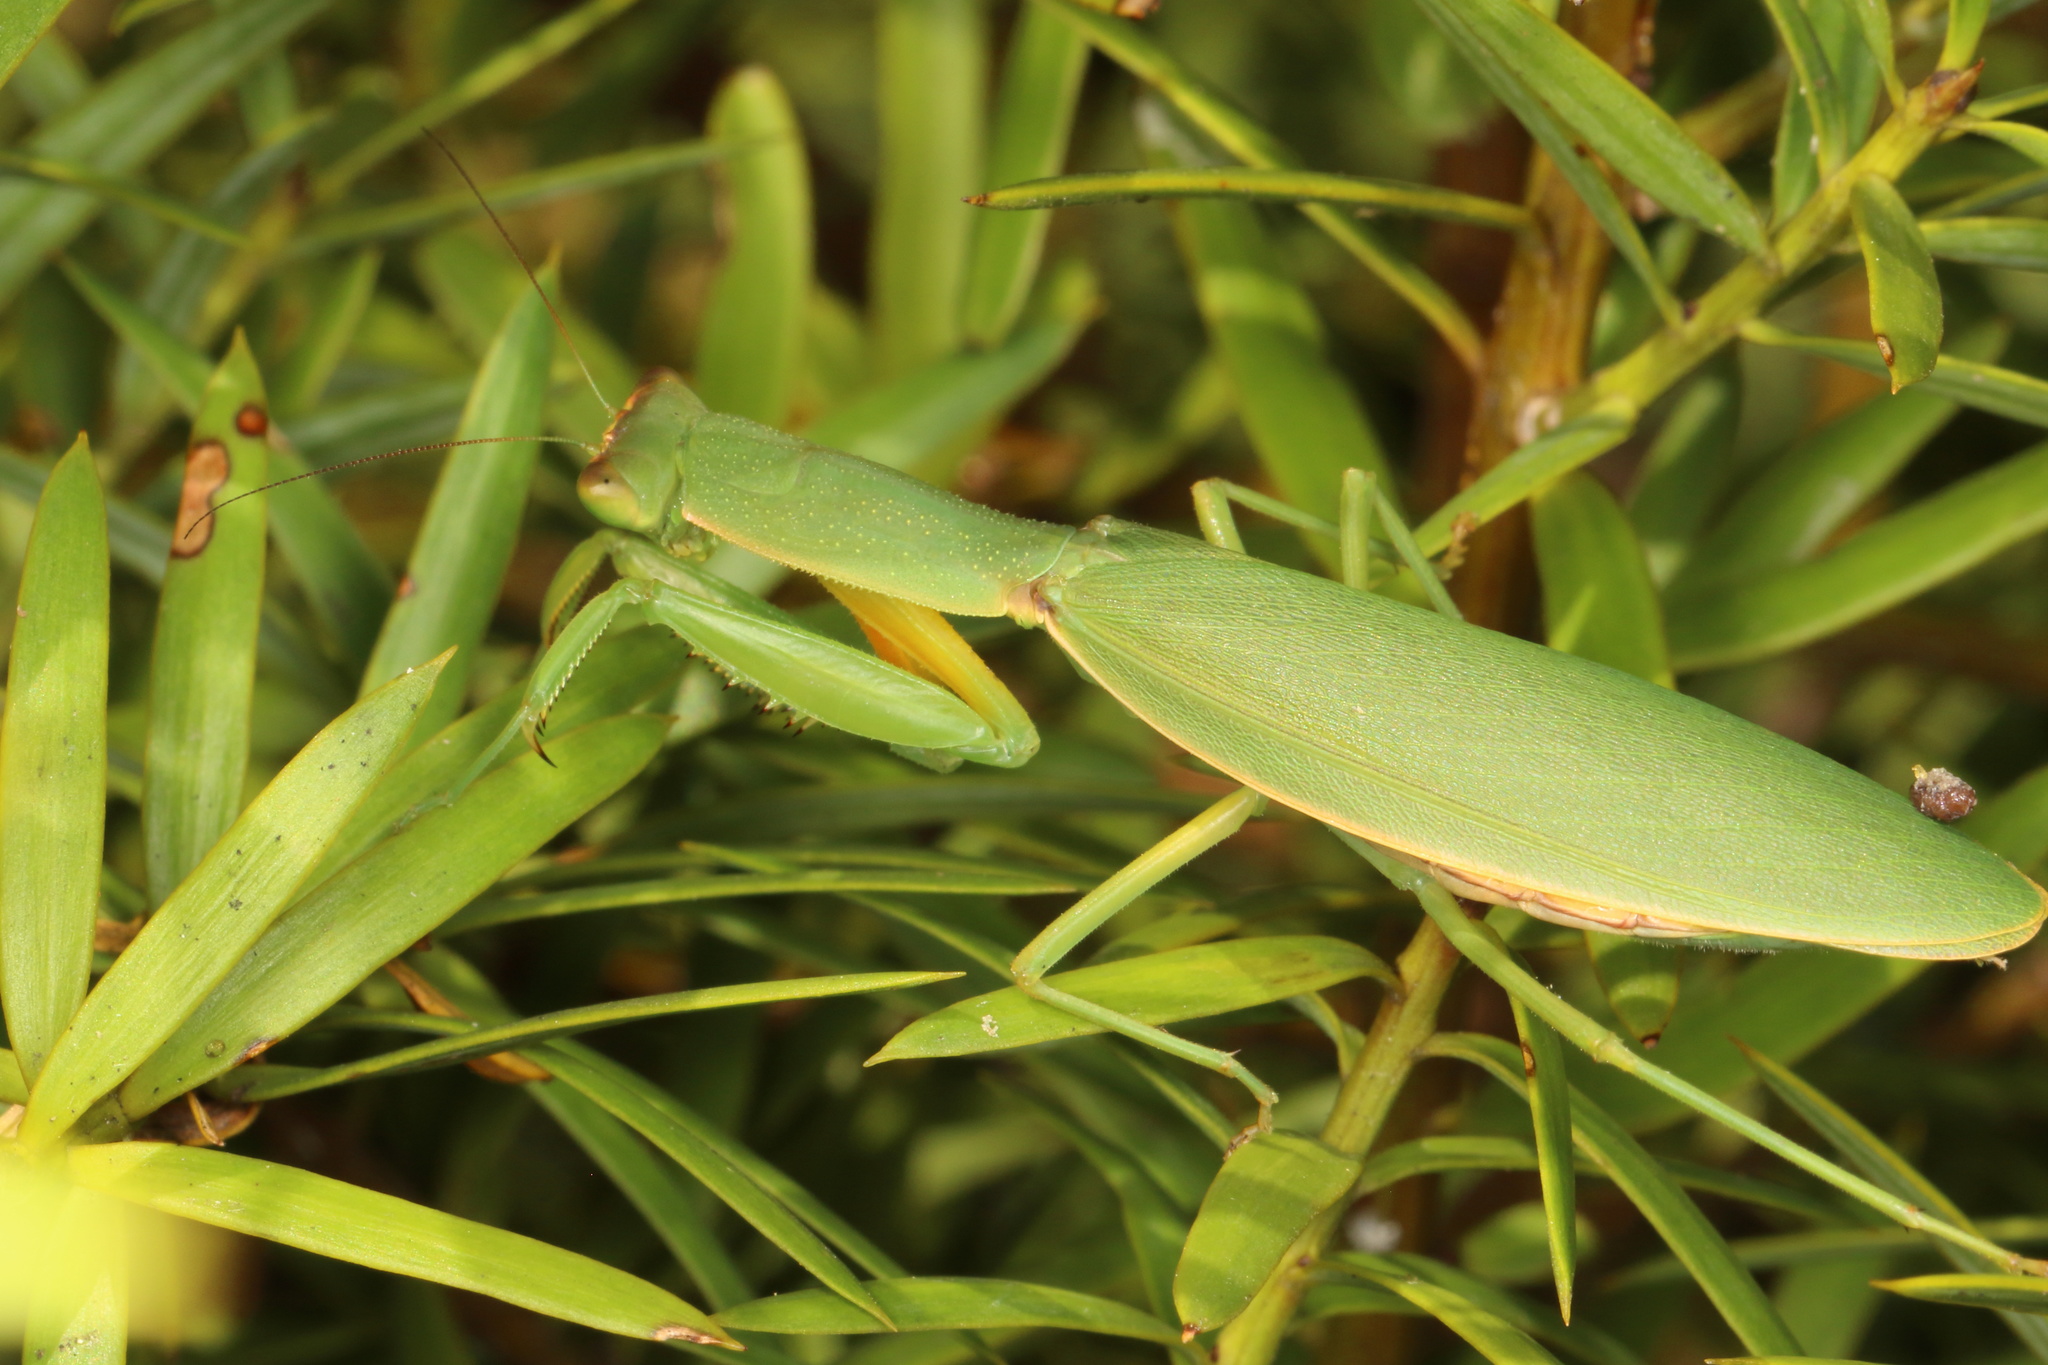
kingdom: Animalia
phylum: Arthropoda
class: Insecta
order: Mantodea
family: Mantidae
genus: Orthodera
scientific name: Orthodera novaezealandiae
